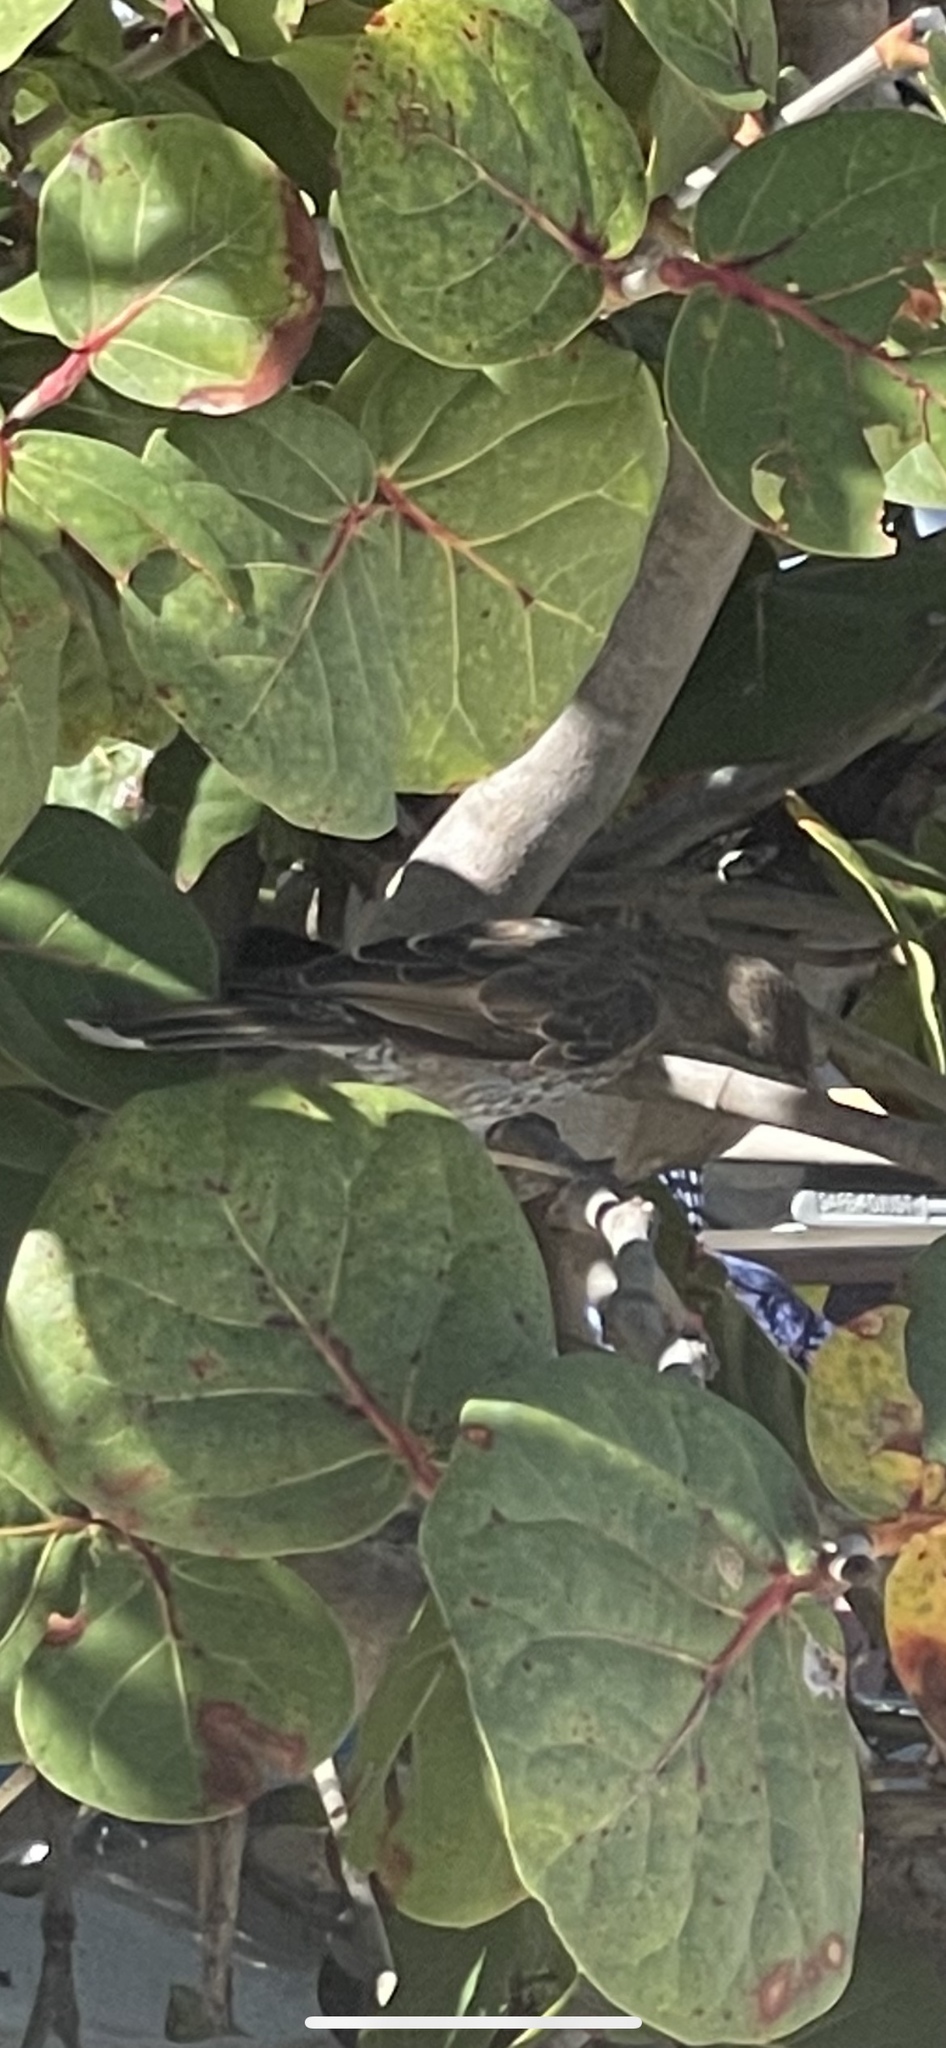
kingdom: Animalia
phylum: Chordata
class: Aves
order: Passeriformes
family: Mimidae
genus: Margarops
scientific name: Margarops fuscatus
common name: Pearly-eyed thrasher
